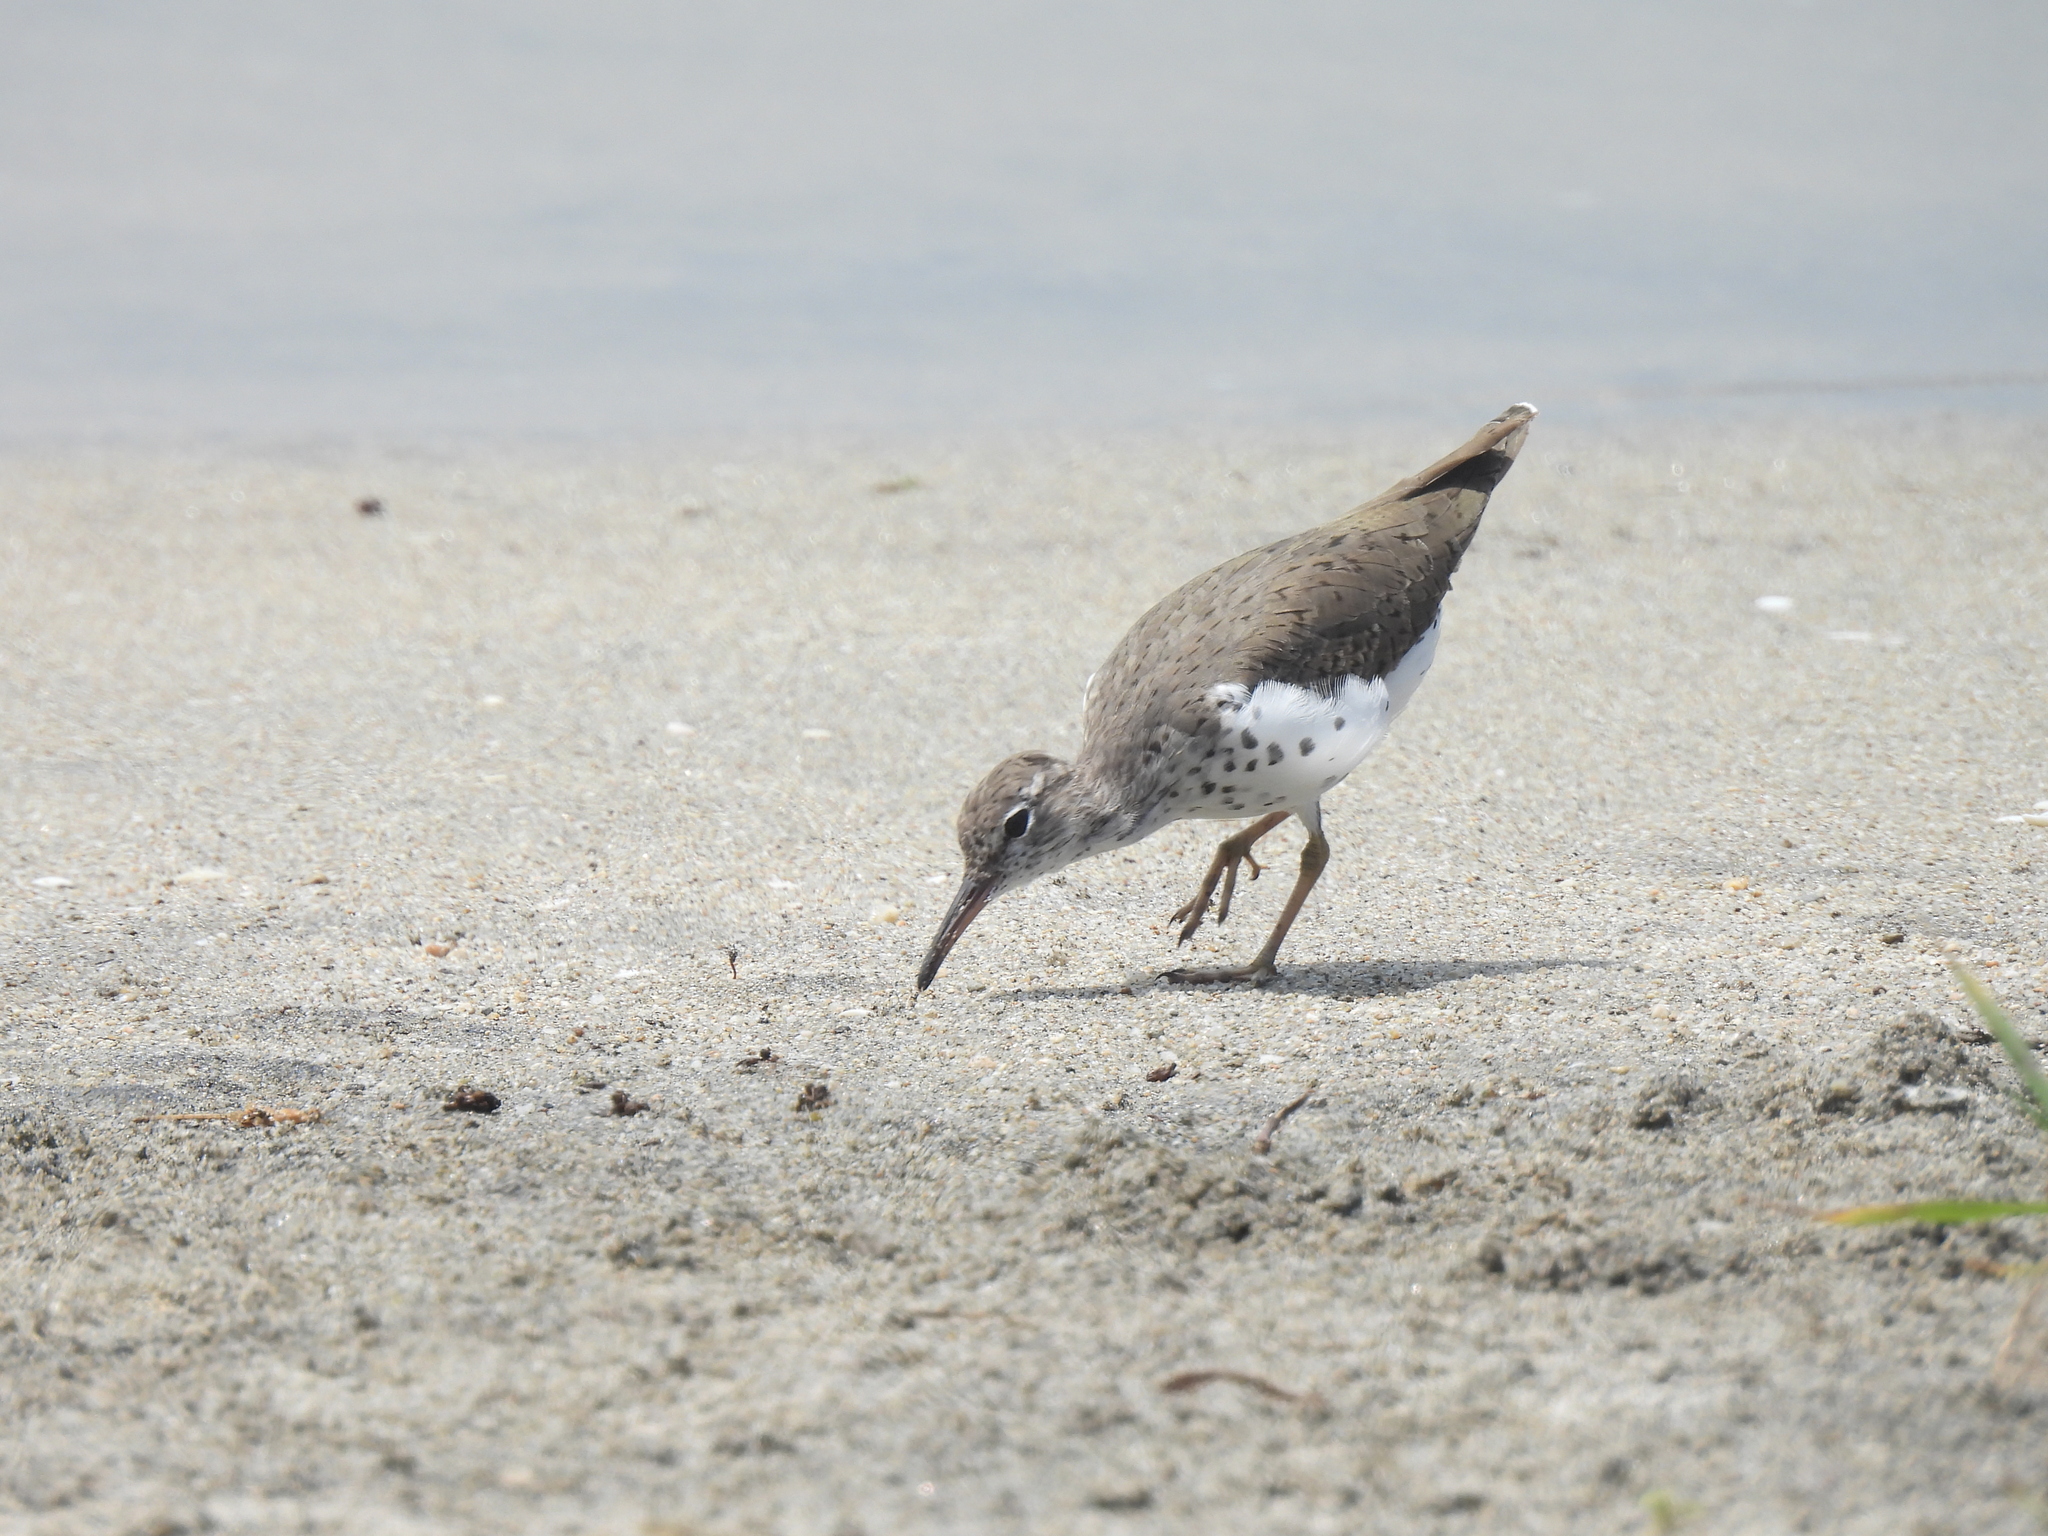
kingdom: Animalia
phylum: Chordata
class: Aves
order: Charadriiformes
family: Scolopacidae
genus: Actitis
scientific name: Actitis macularius
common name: Spotted sandpiper
